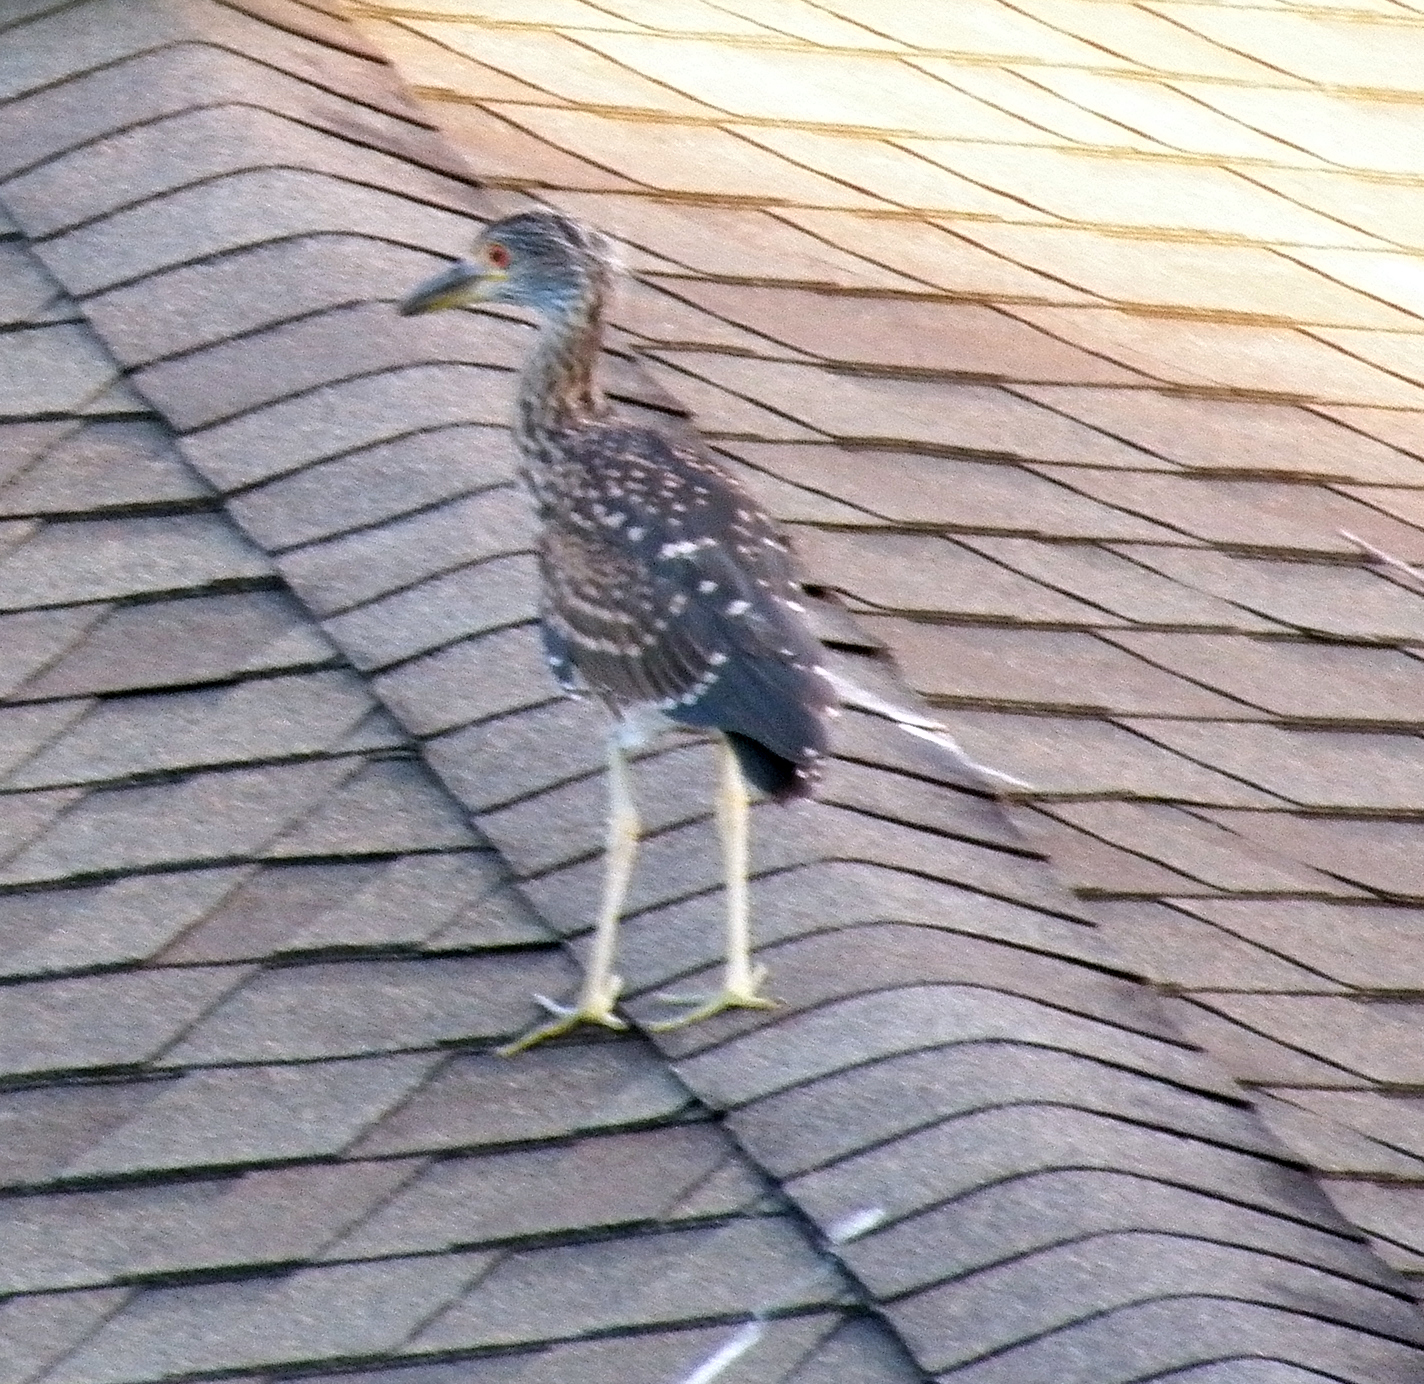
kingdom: Animalia
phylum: Chordata
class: Aves
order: Pelecaniformes
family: Ardeidae
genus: Nyctanassa
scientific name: Nyctanassa violacea
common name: Yellow-crowned night heron
